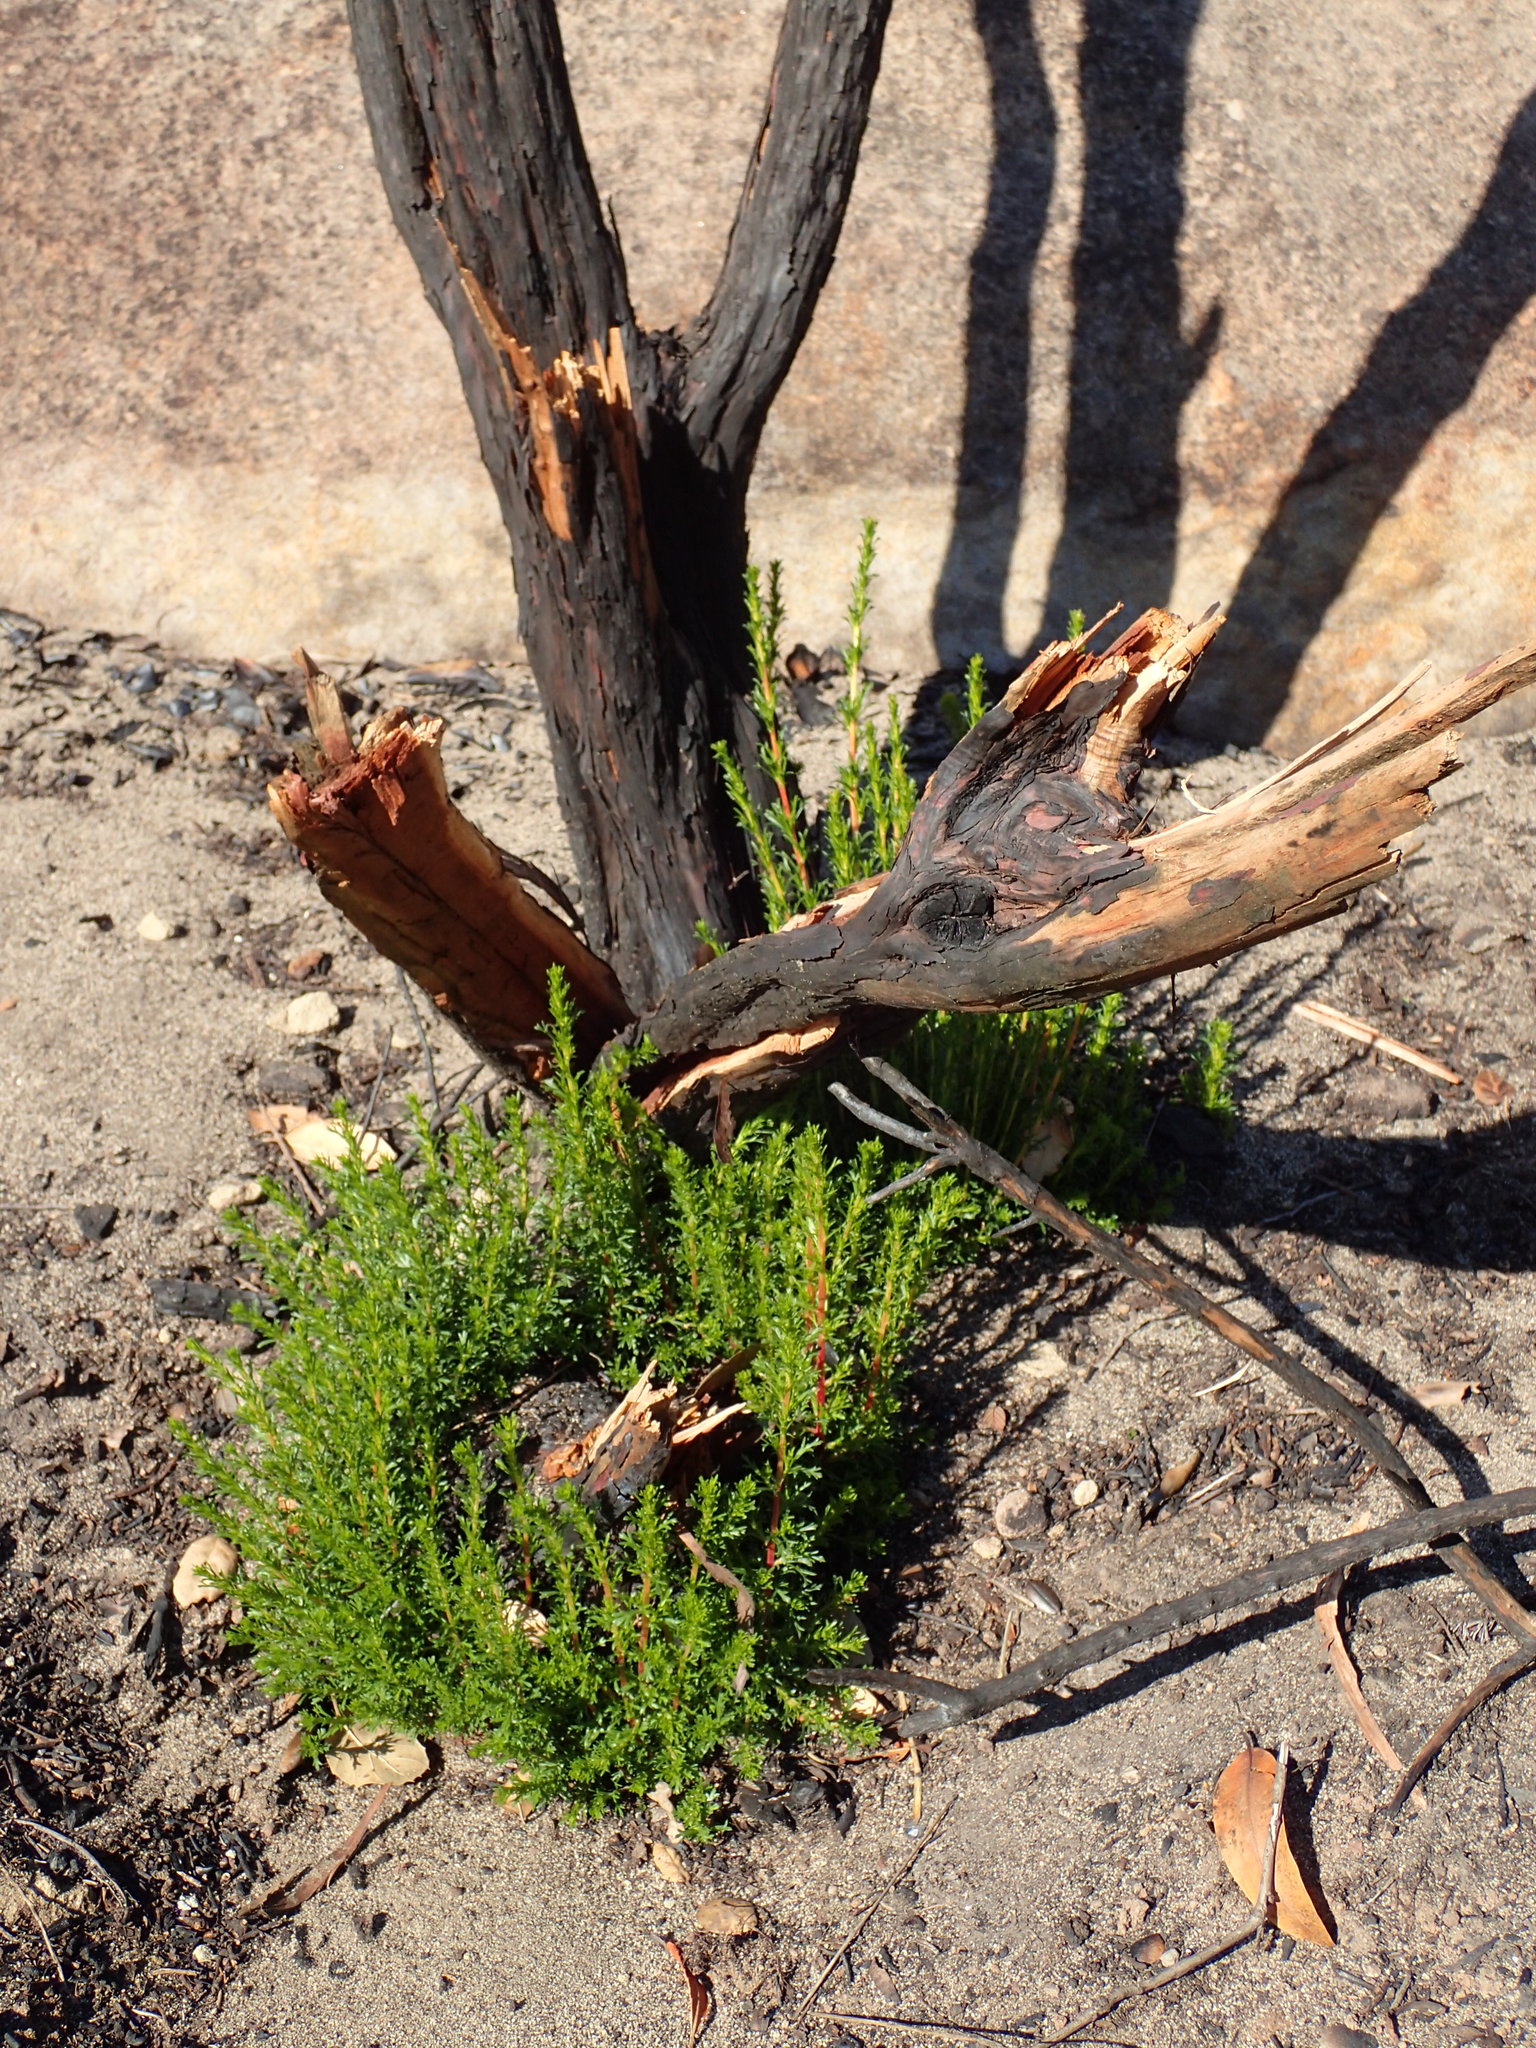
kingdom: Plantae
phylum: Tracheophyta
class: Magnoliopsida
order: Rosales
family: Rosaceae
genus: Adenostoma
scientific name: Adenostoma fasciculatum
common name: Chamise
